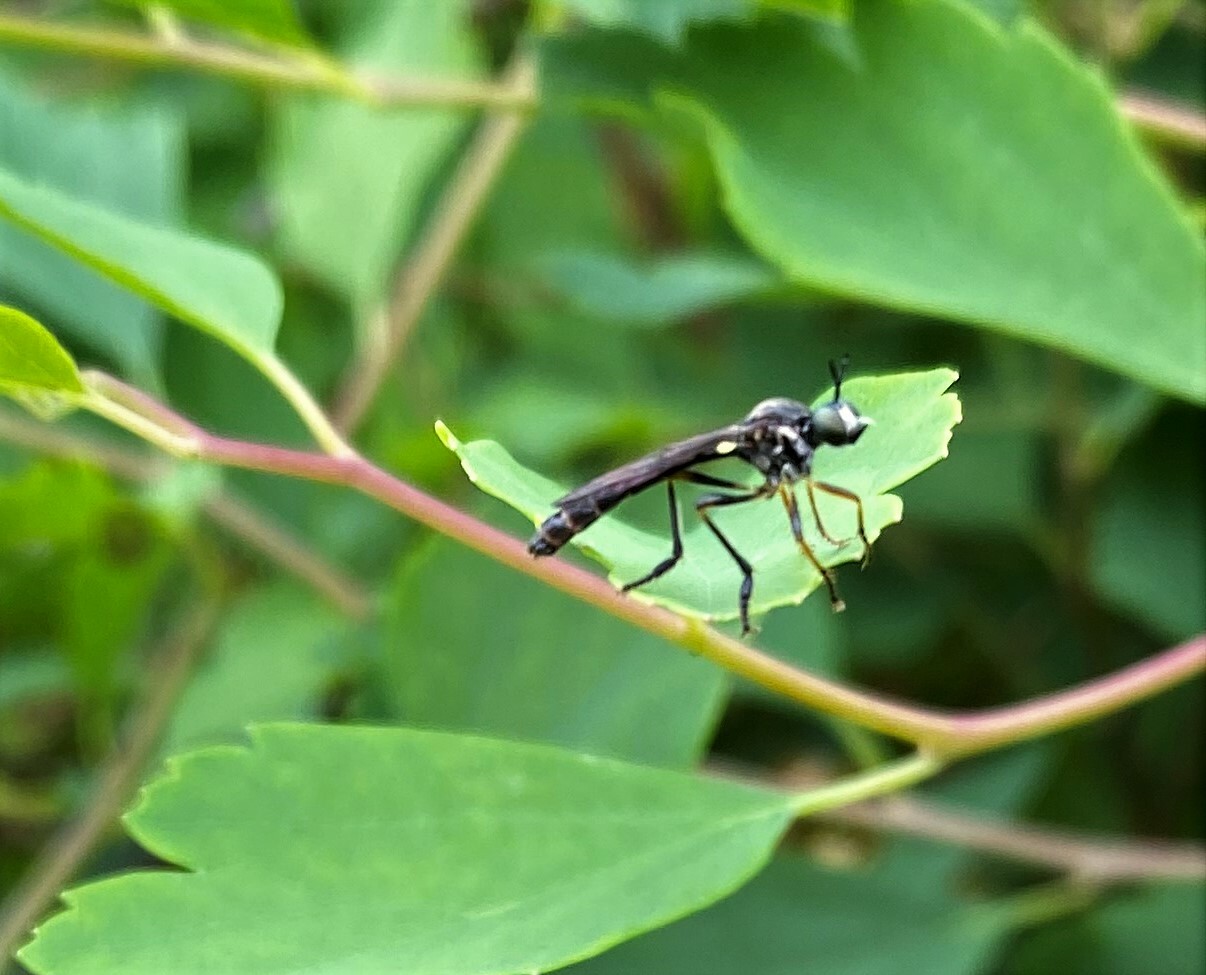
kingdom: Animalia
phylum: Arthropoda
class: Insecta
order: Diptera
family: Asilidae
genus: Dioctria
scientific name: Dioctria hyalipennis
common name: Stripe-legged robberfly
